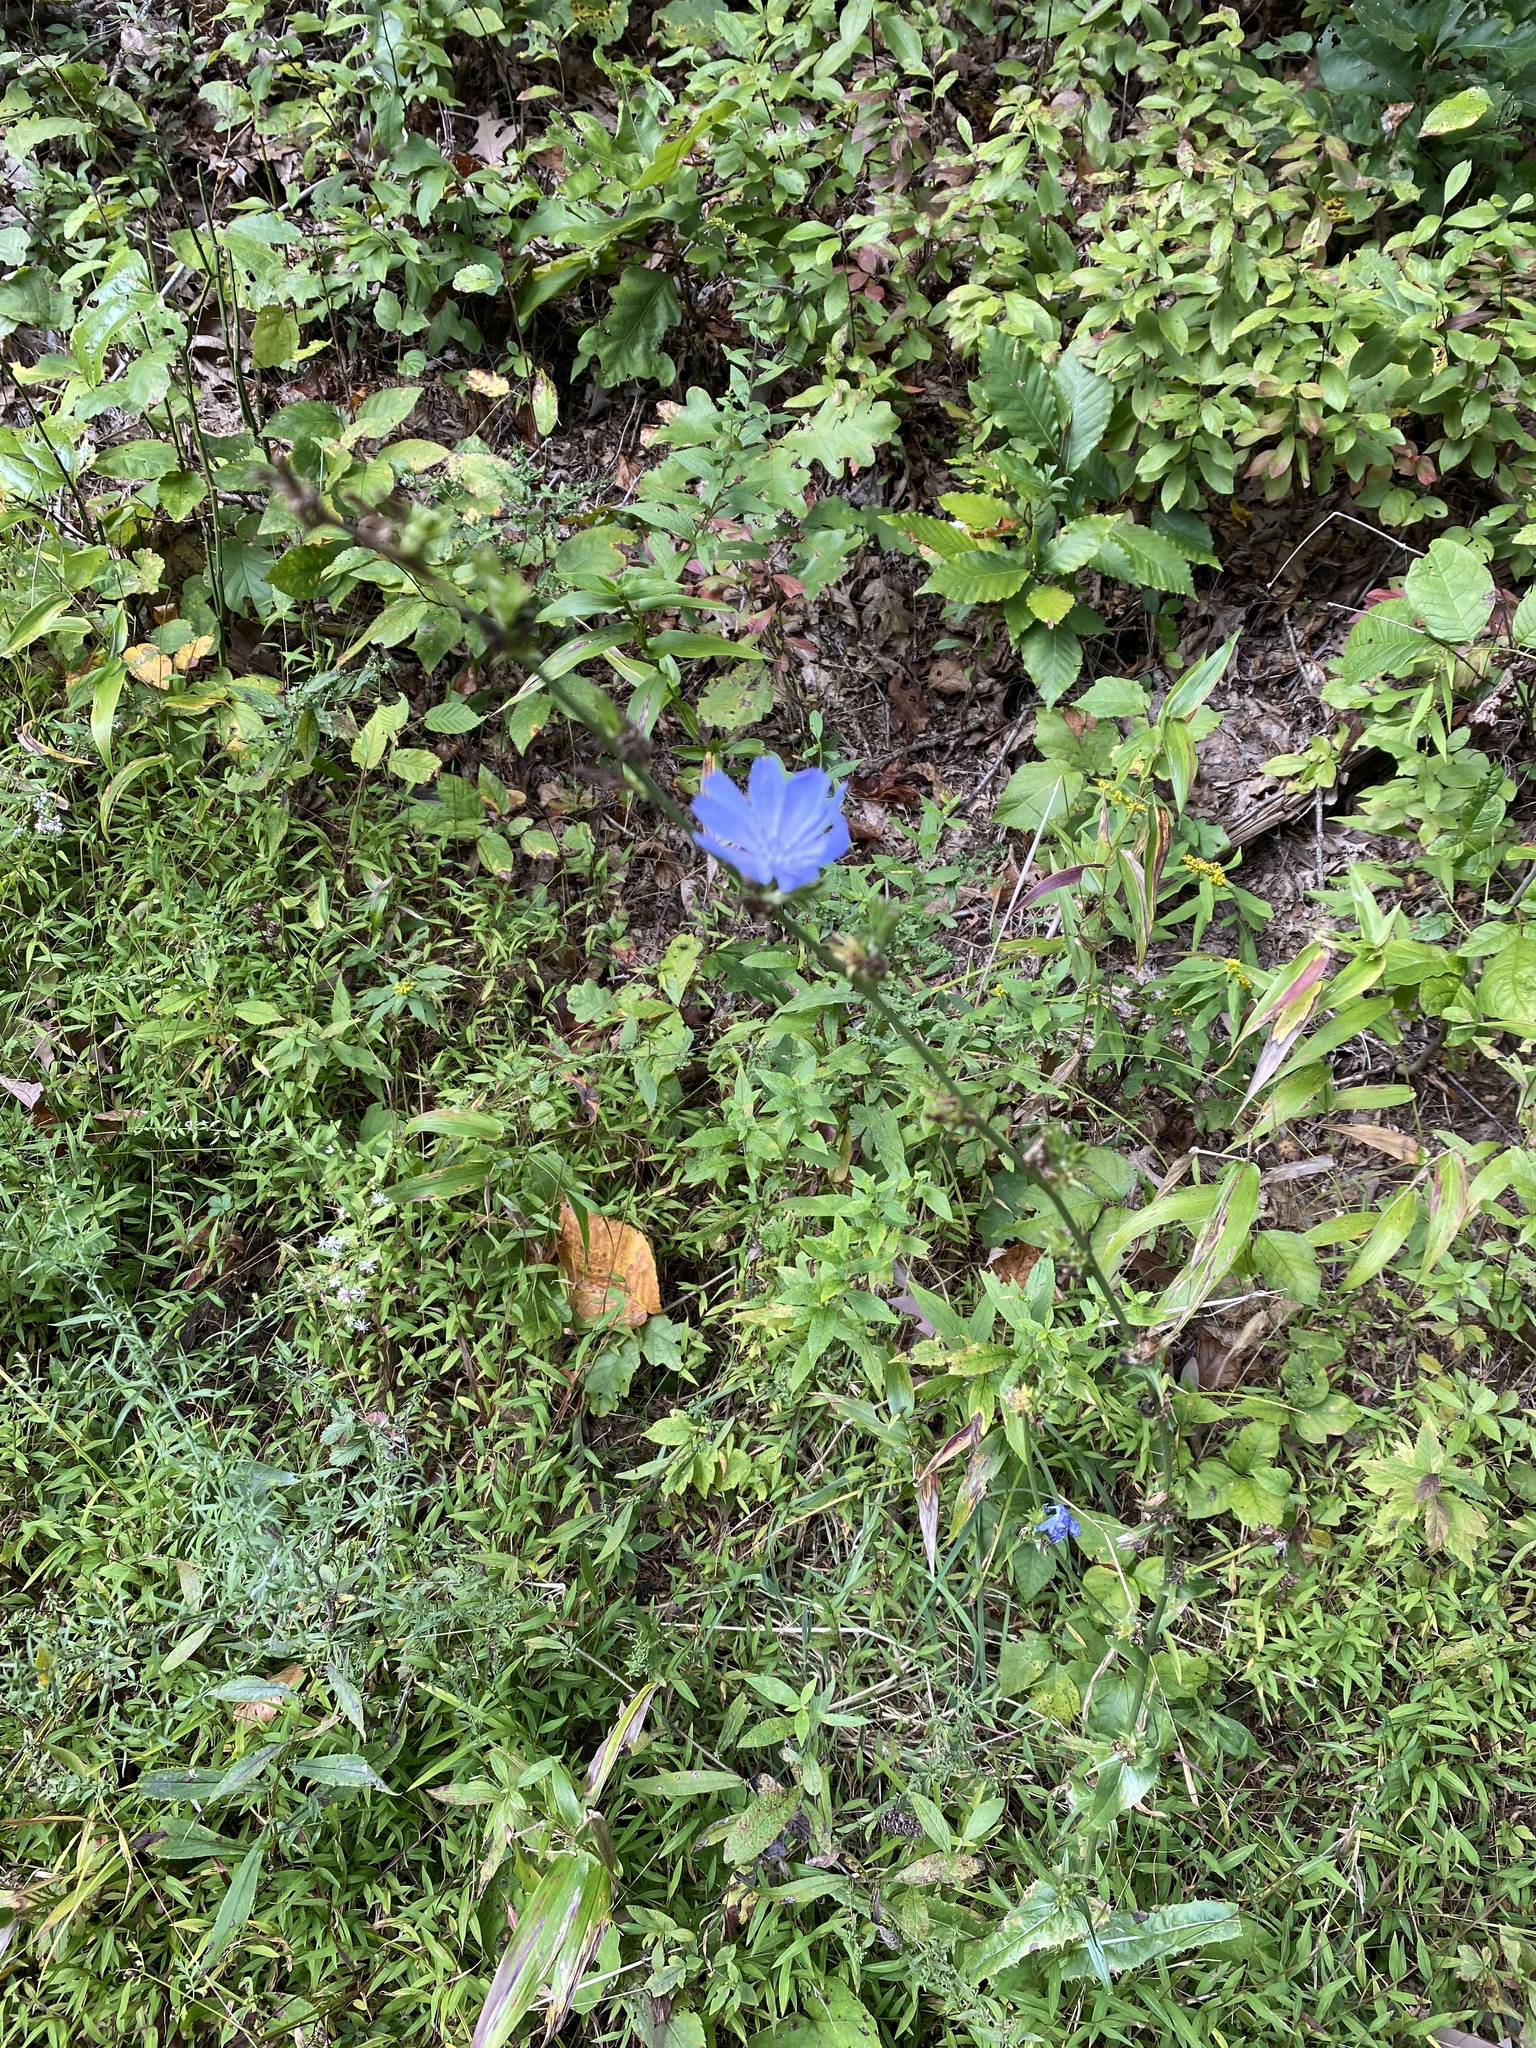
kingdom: Plantae
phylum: Tracheophyta
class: Magnoliopsida
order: Asterales
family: Asteraceae
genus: Cichorium
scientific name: Cichorium intybus
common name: Chicory
